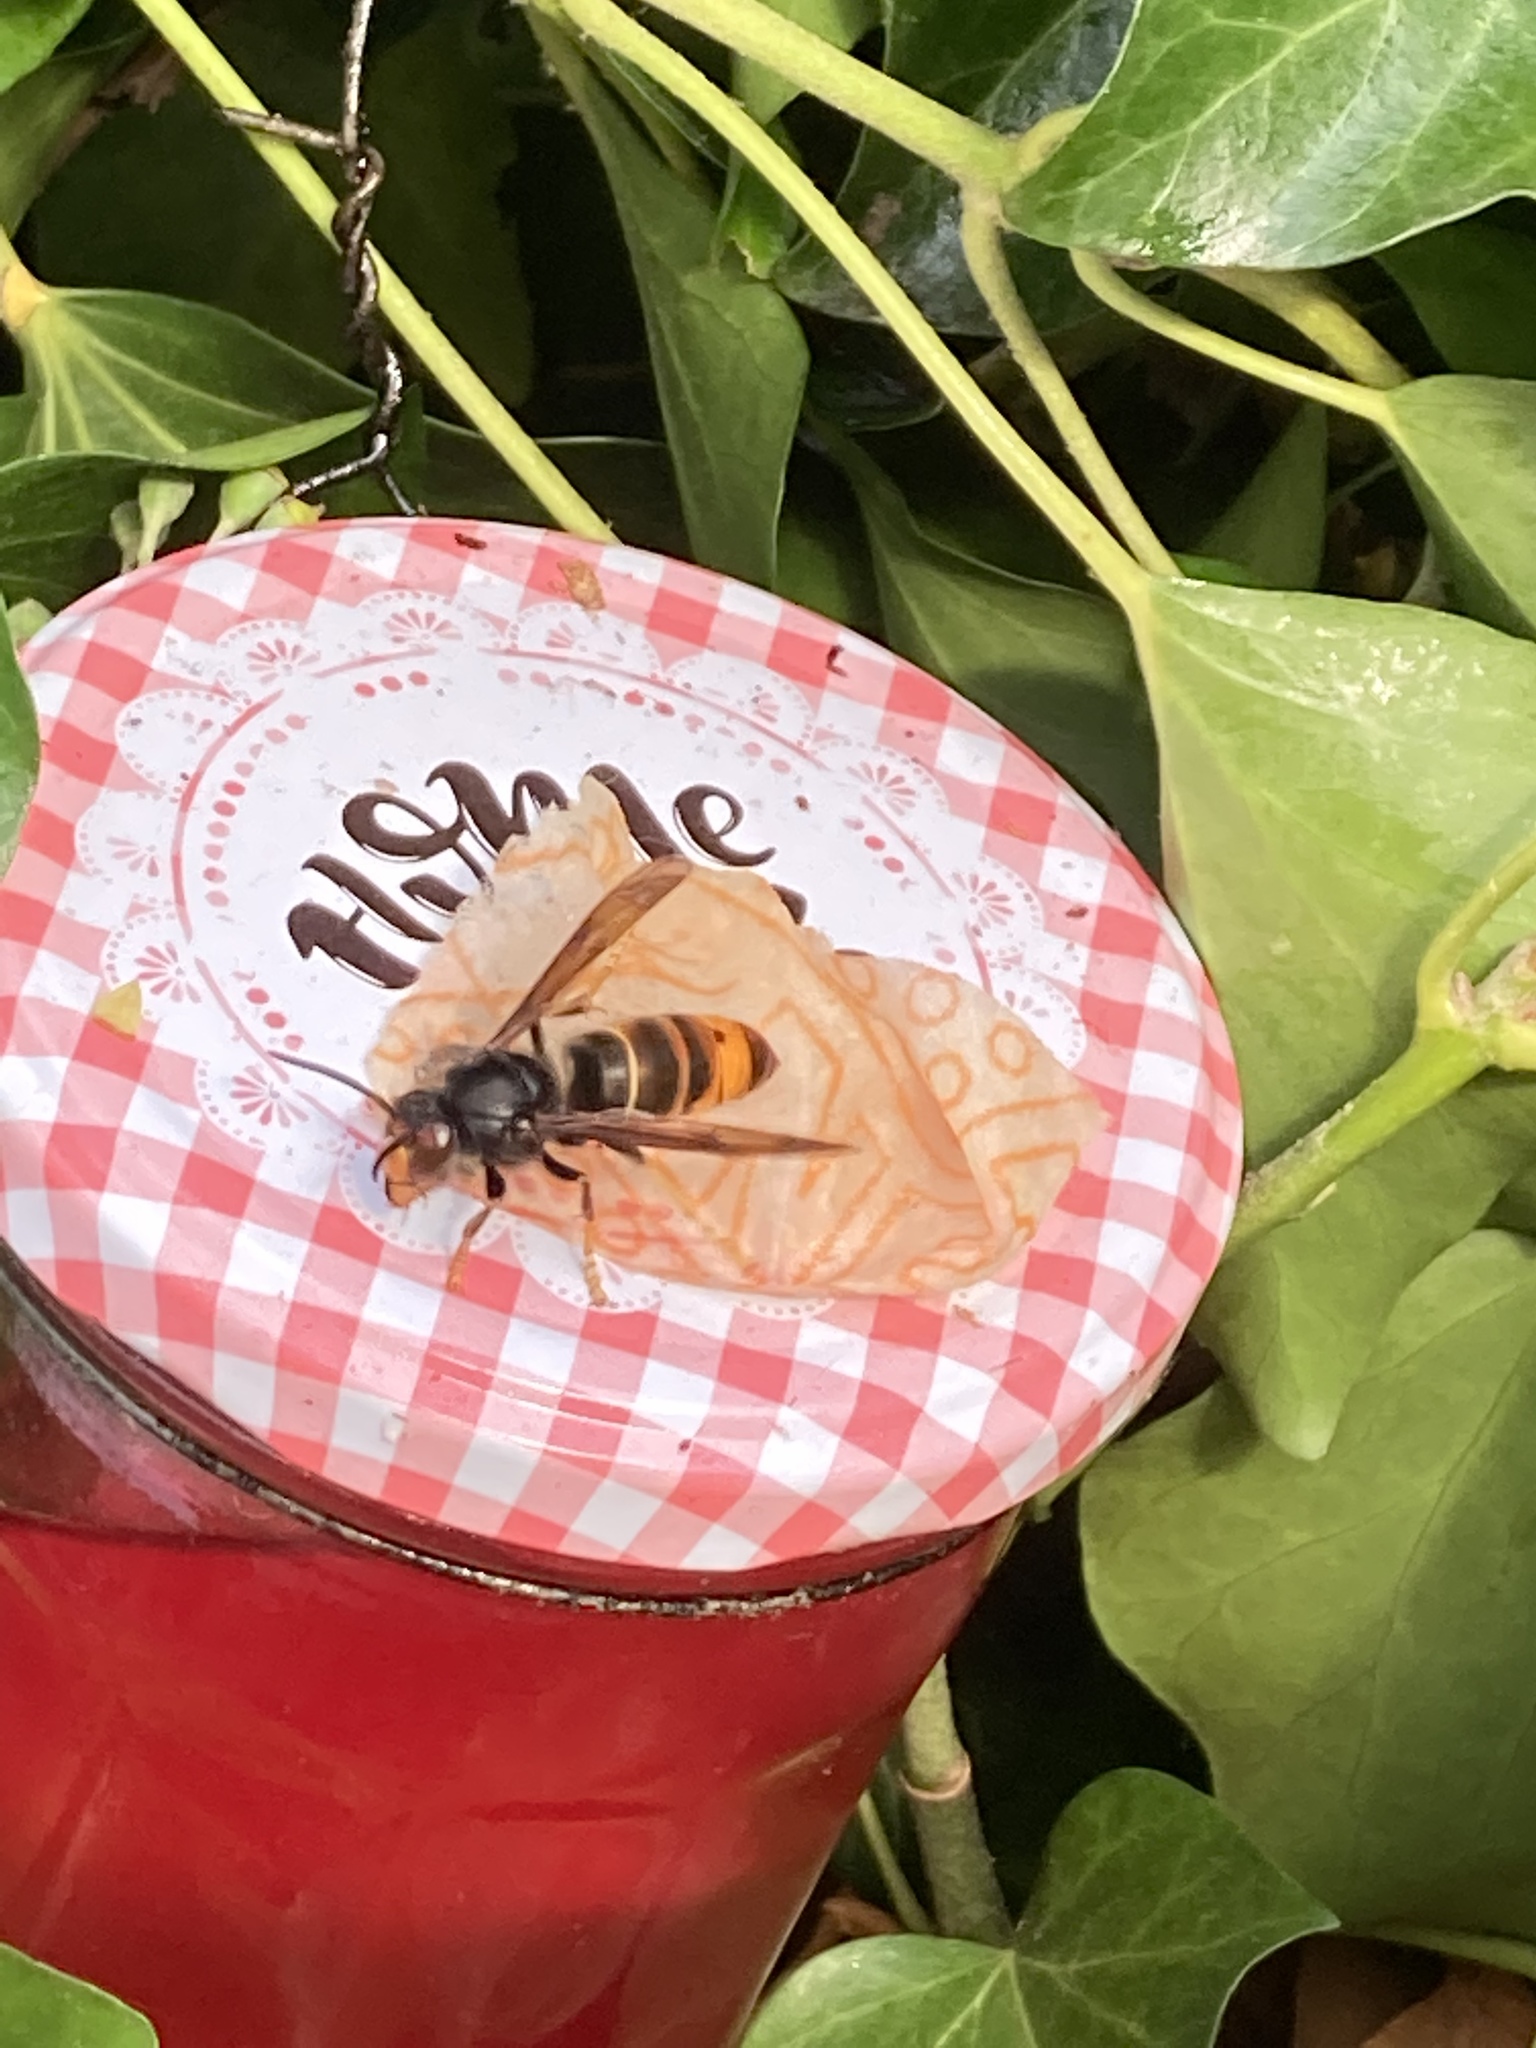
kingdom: Animalia
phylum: Arthropoda
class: Insecta
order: Hymenoptera
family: Vespidae
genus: Vespa
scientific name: Vespa velutina
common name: Asian hornet
